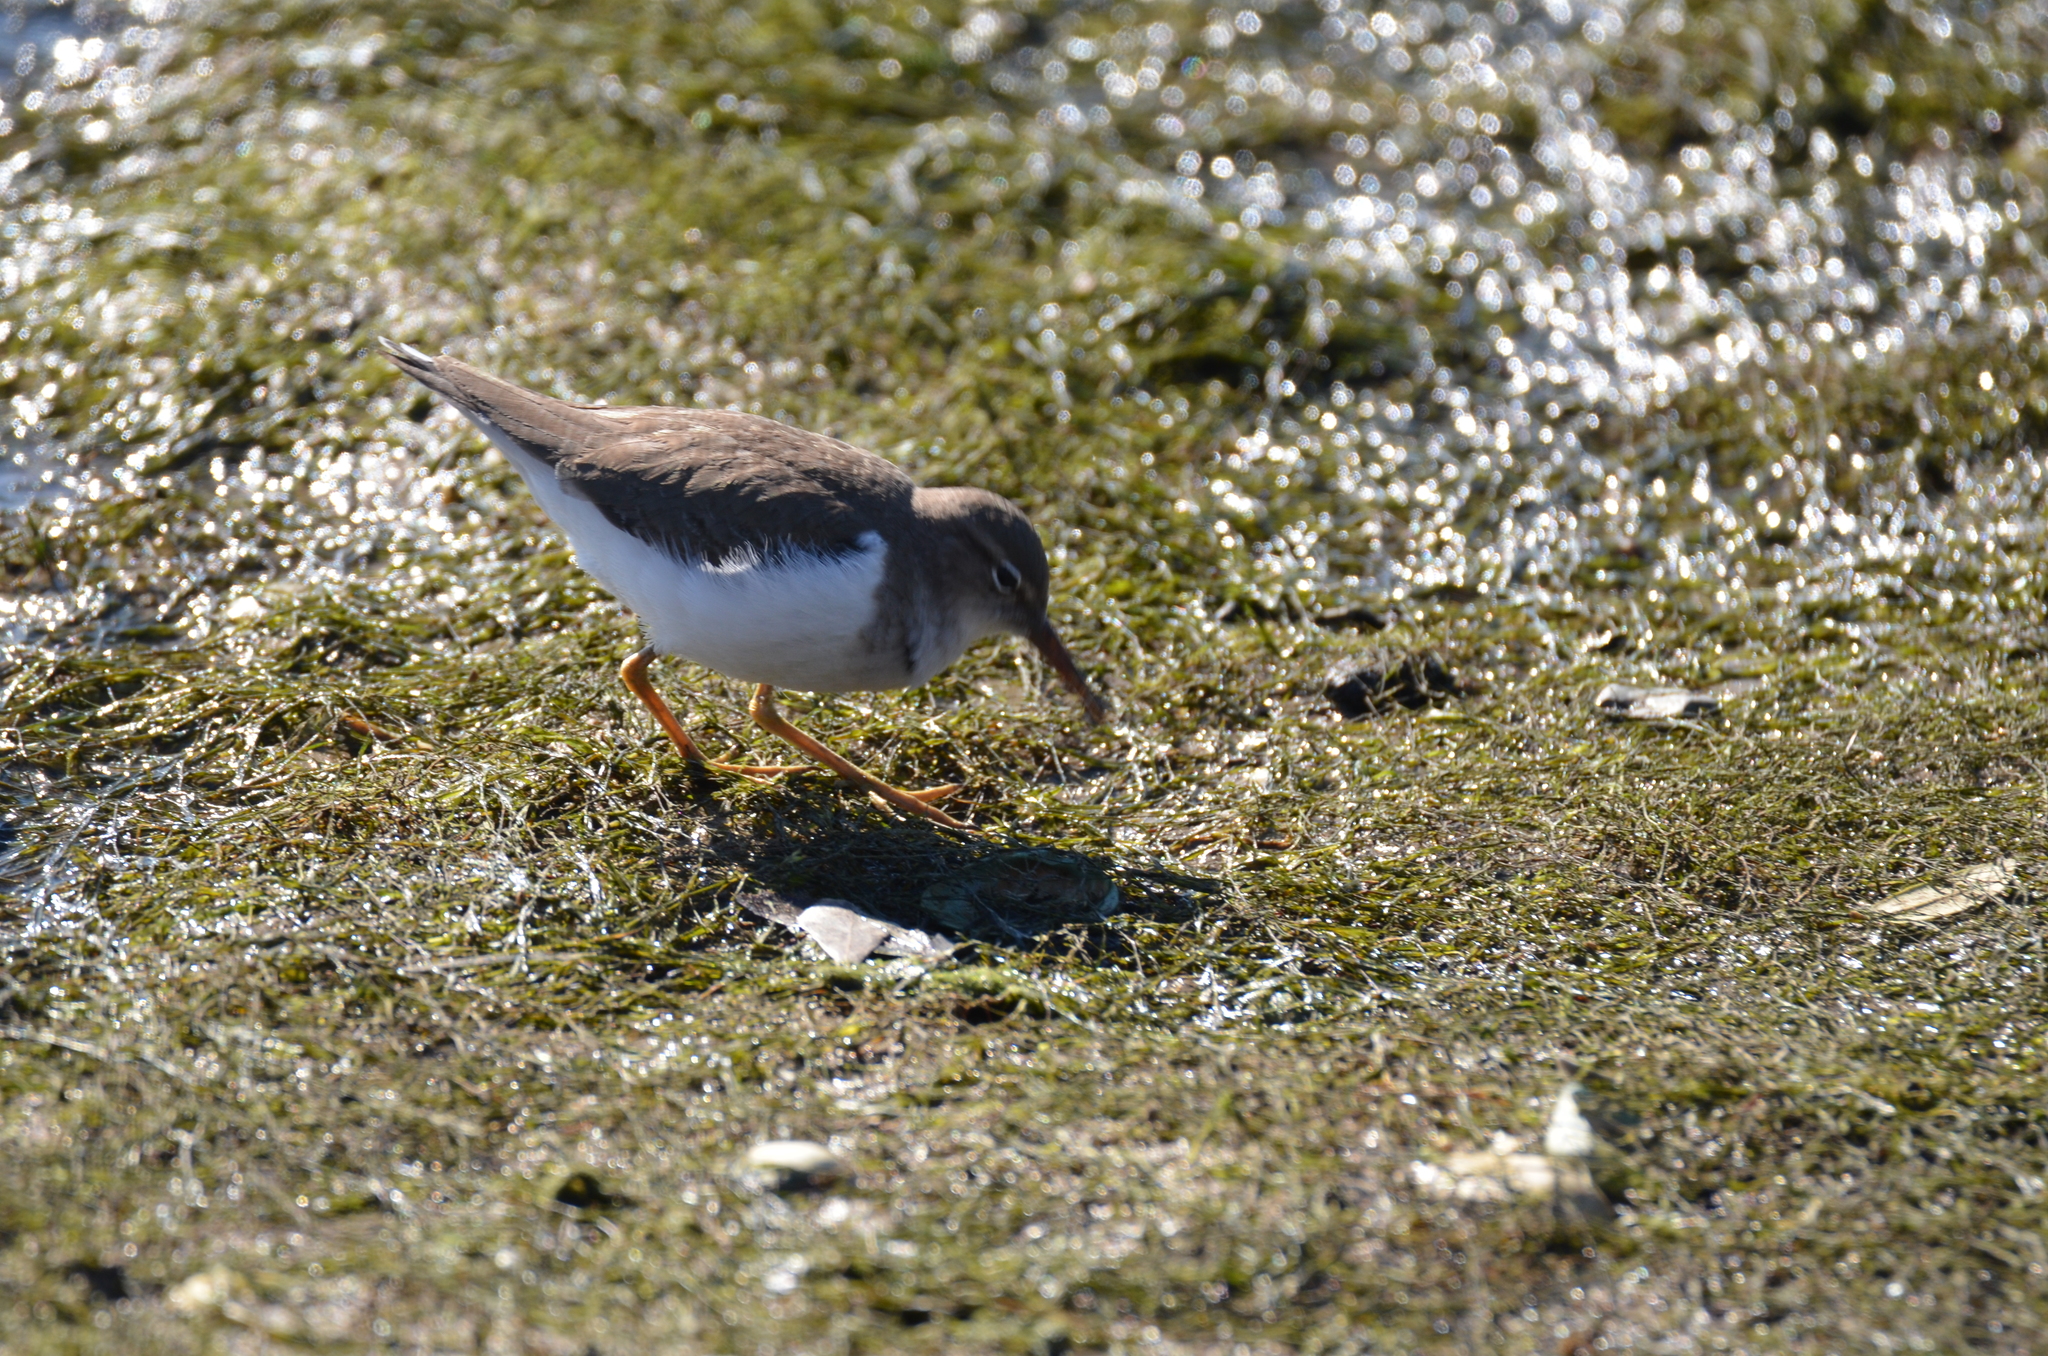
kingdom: Animalia
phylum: Chordata
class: Aves
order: Charadriiformes
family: Scolopacidae
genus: Actitis
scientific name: Actitis macularius
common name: Spotted sandpiper
